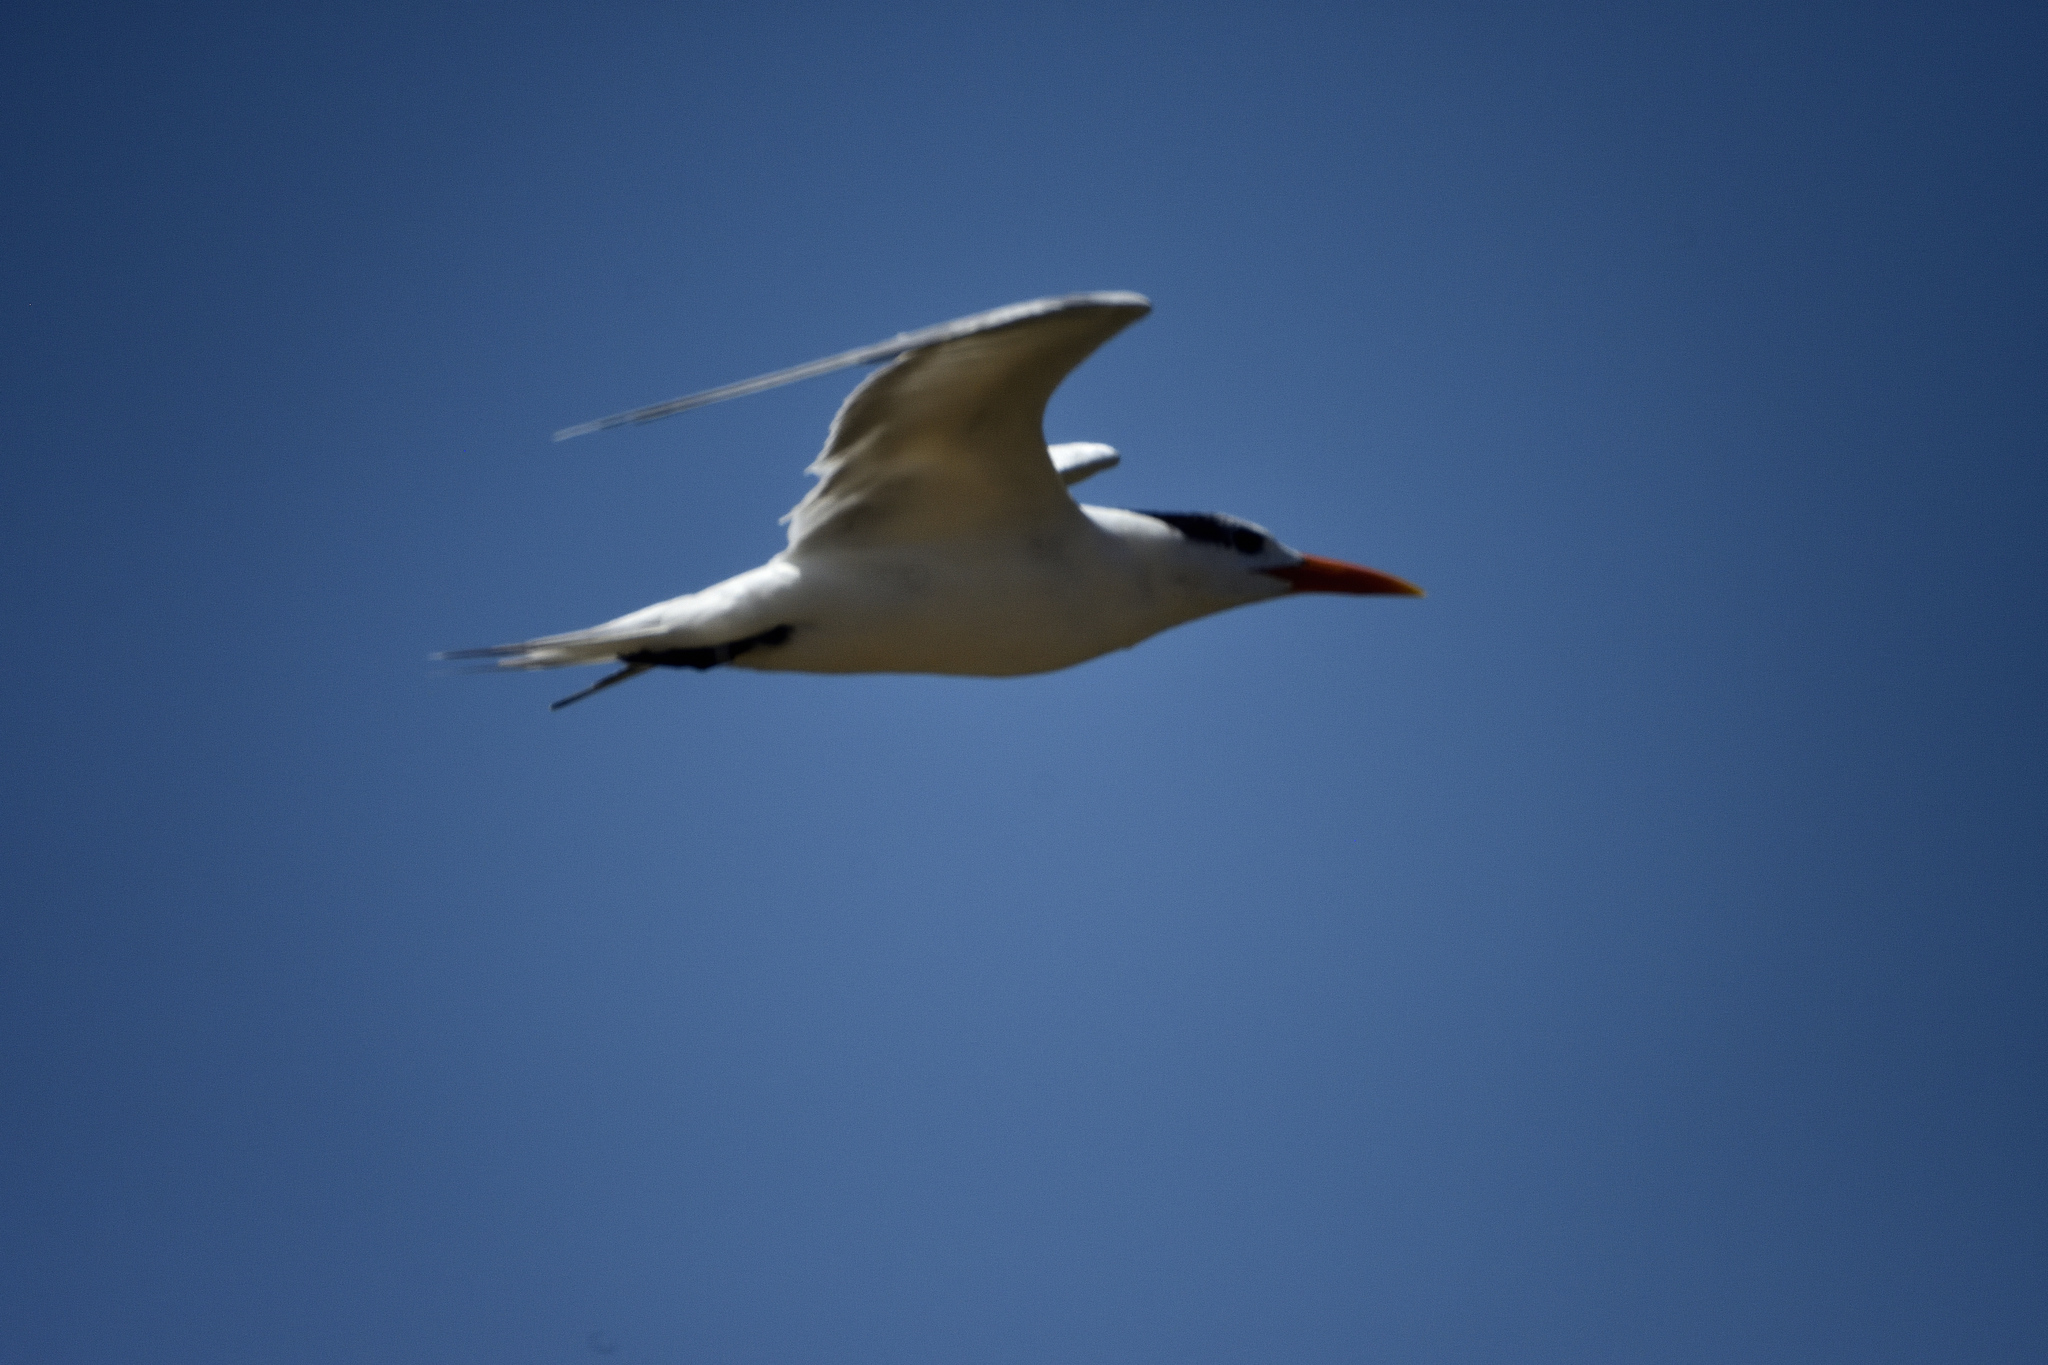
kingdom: Animalia
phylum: Chordata
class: Aves
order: Charadriiformes
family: Laridae
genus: Thalasseus
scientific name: Thalasseus maximus
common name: Royal tern
